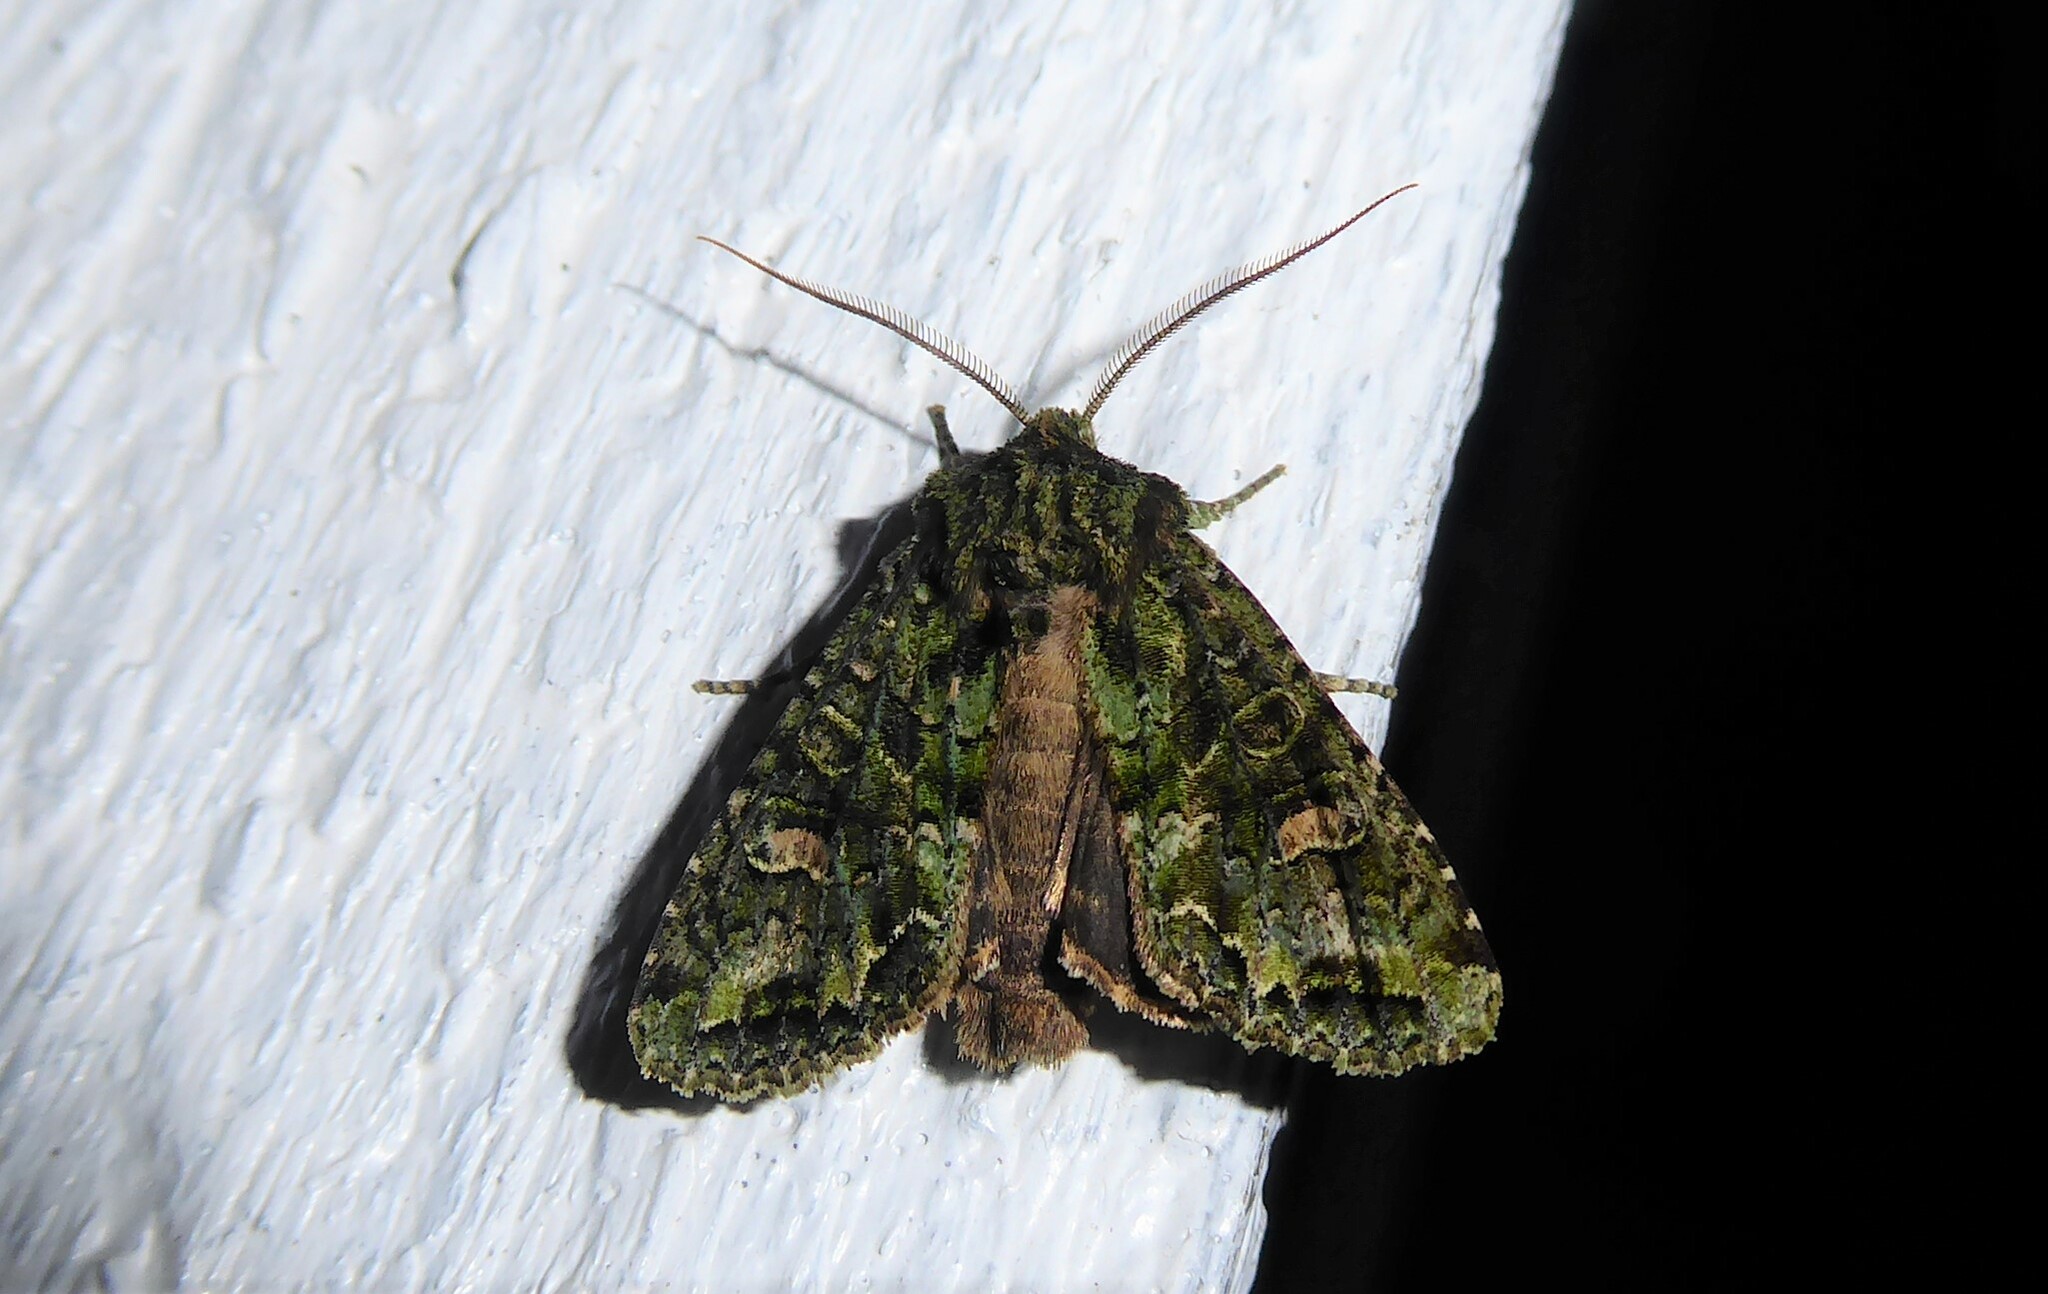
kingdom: Animalia
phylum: Arthropoda
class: Insecta
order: Lepidoptera
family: Noctuidae
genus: Ichneutica
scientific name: Ichneutica
